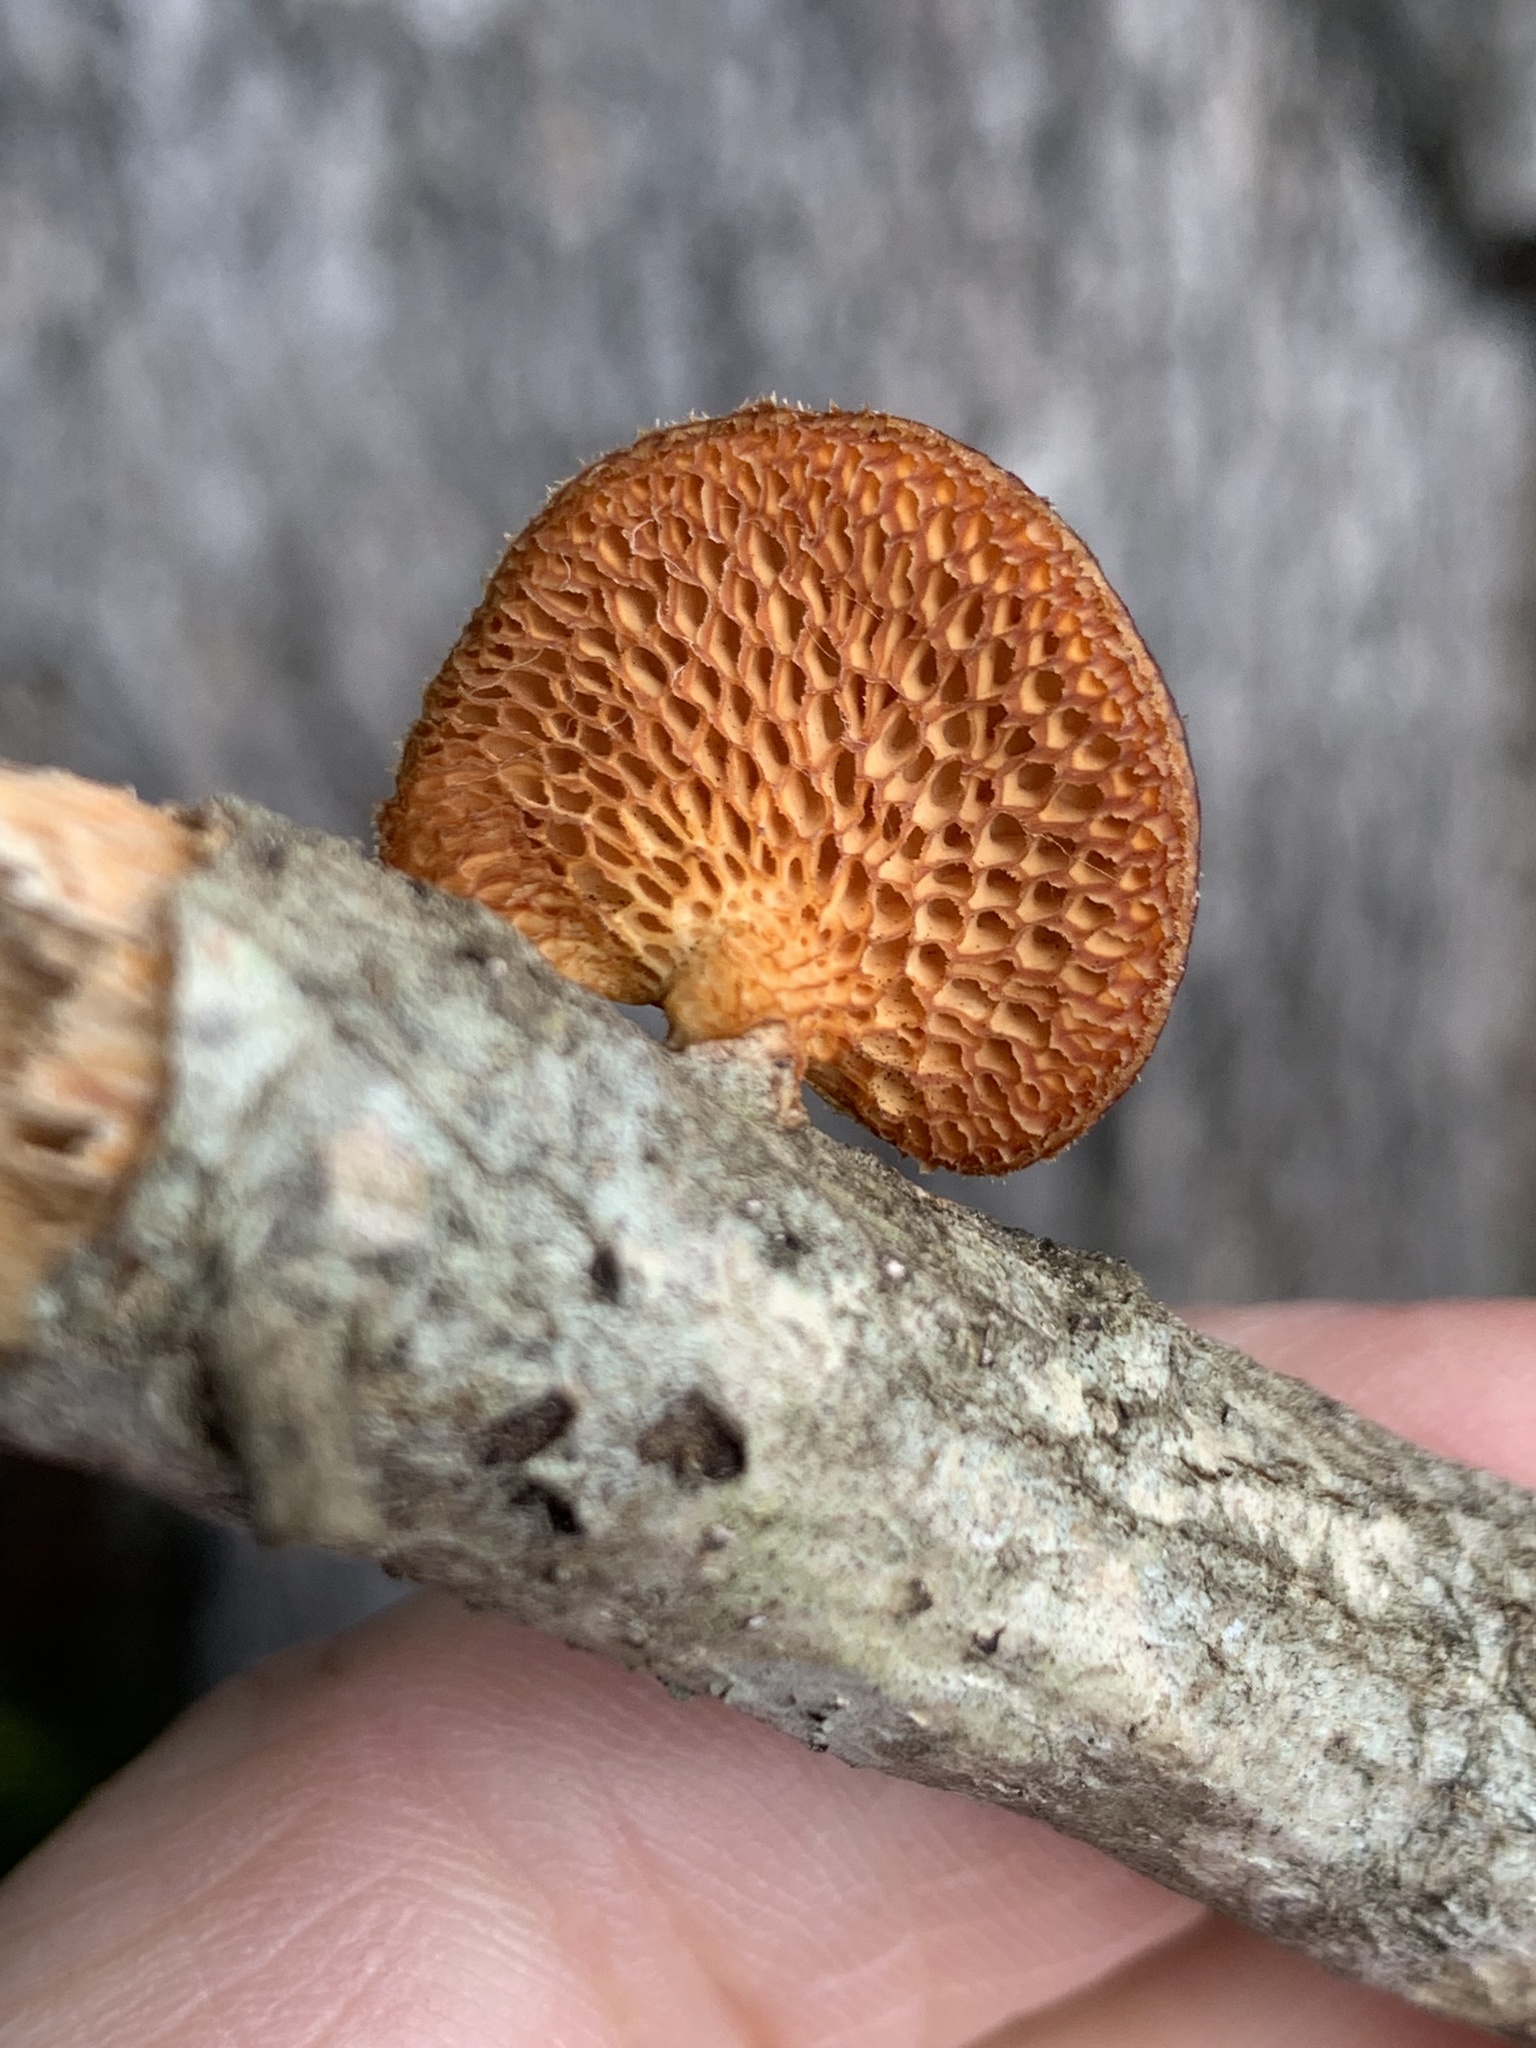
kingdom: Fungi
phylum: Basidiomycota
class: Agaricomycetes
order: Polyporales
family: Polyporaceae
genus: Neofavolus
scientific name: Neofavolus alveolaris
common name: Hexagonal-pored polypore
